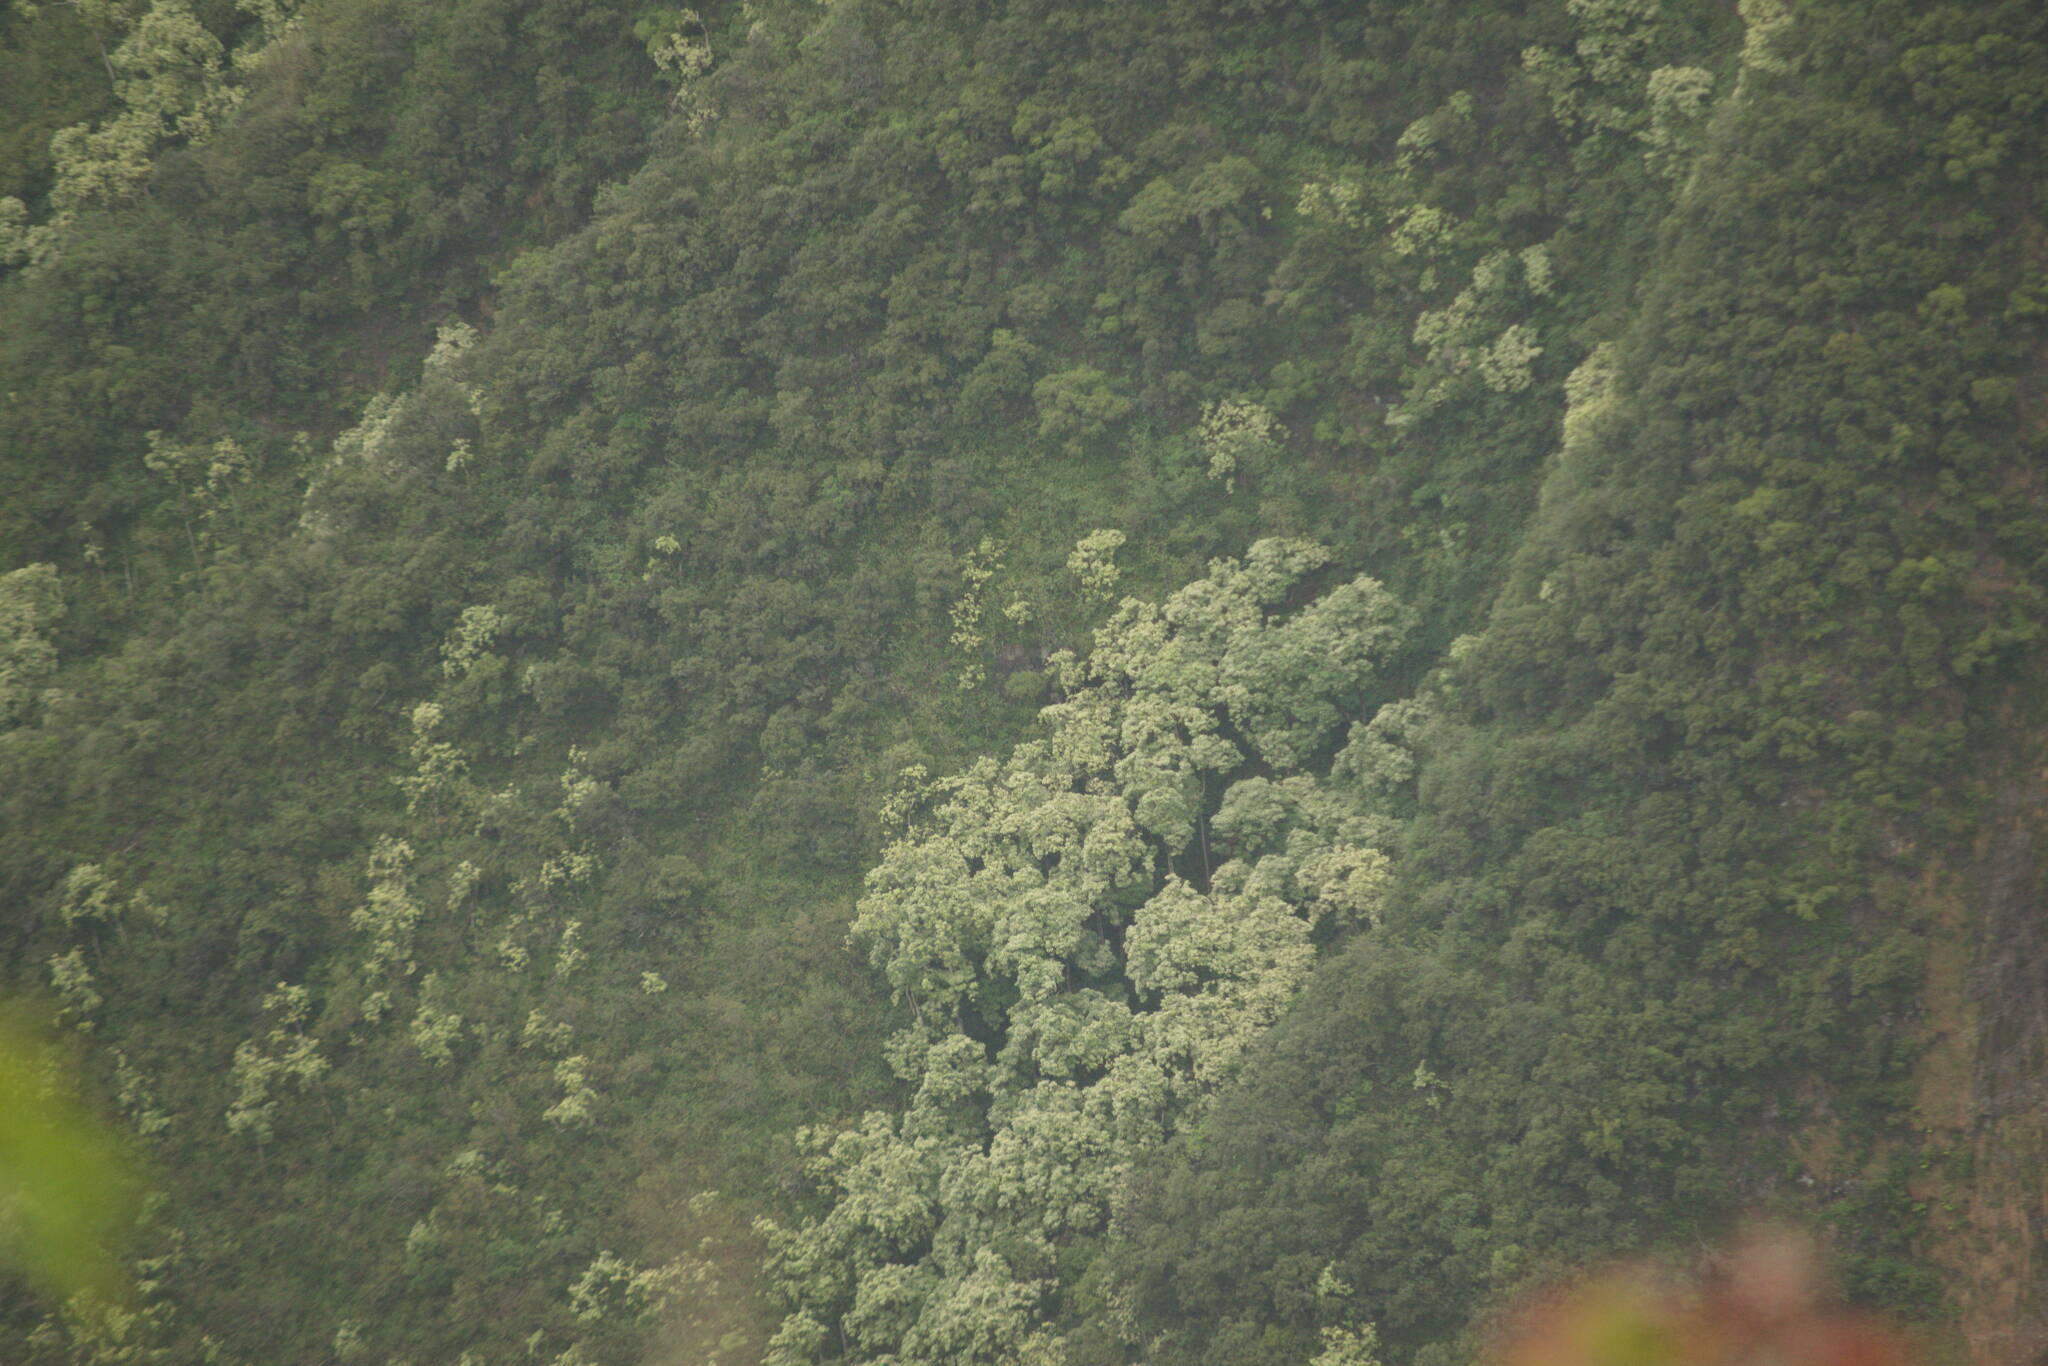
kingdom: Plantae
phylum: Tracheophyta
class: Magnoliopsida
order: Malpighiales
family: Euphorbiaceae
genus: Aleurites
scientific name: Aleurites moluccanus
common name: Candlenut tree
